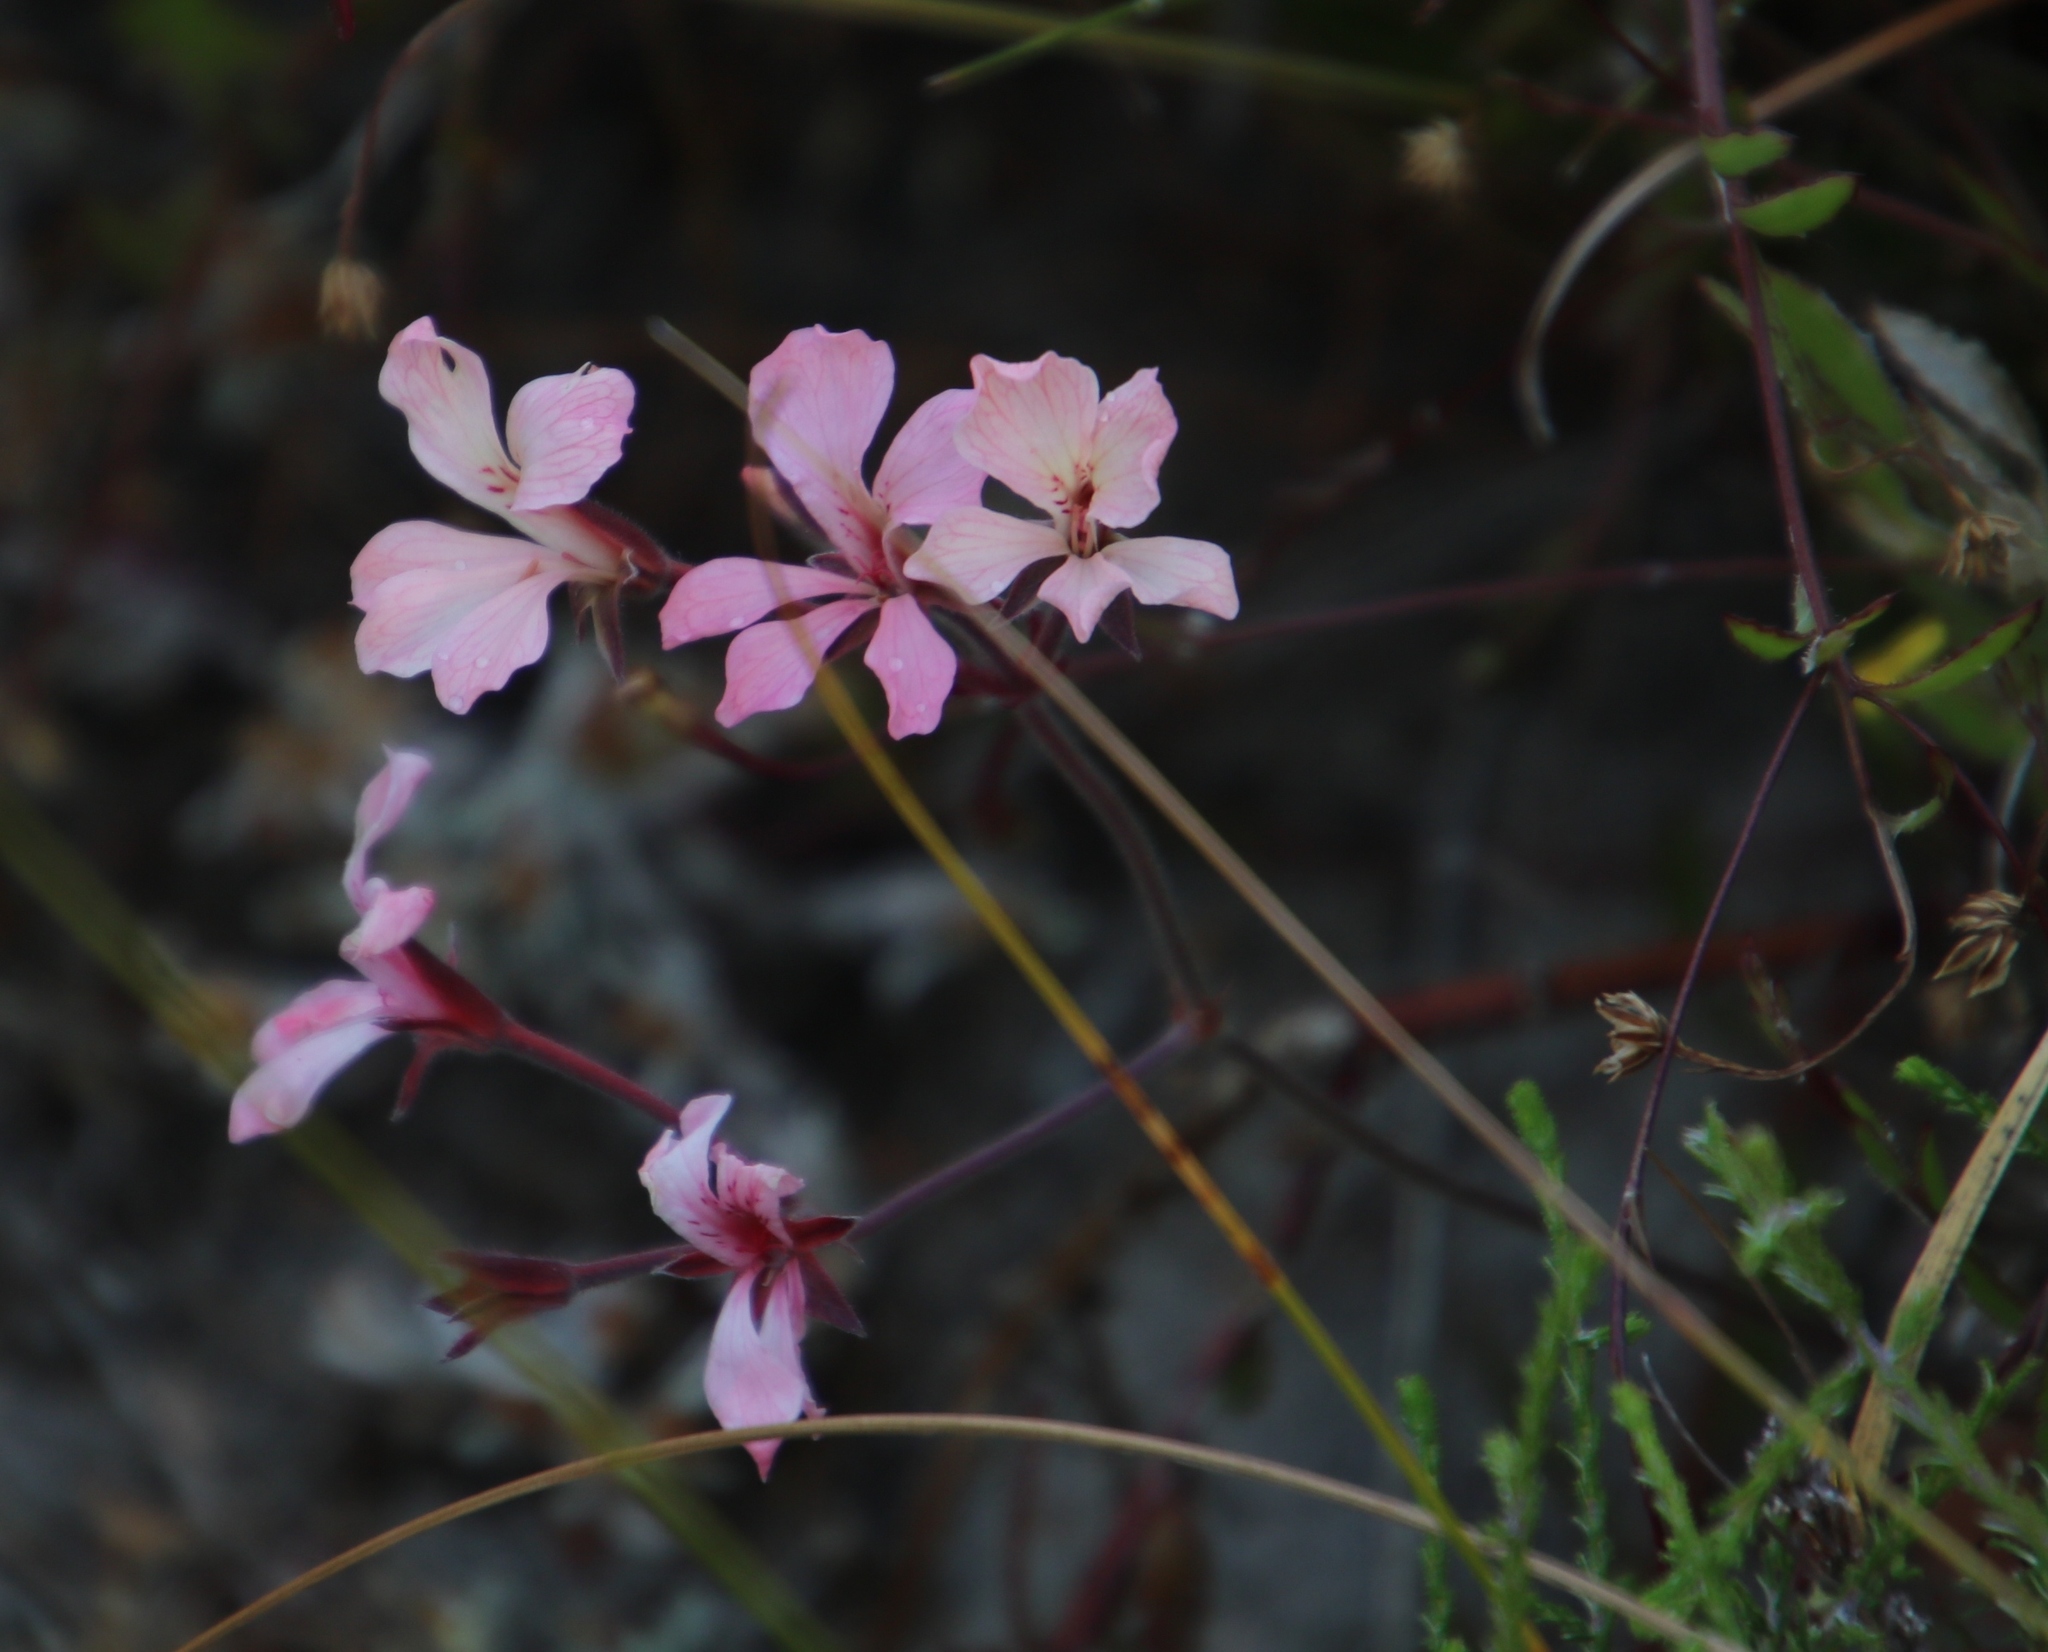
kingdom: Plantae
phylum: Tracheophyta
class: Magnoliopsida
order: Geraniales
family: Geraniaceae
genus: Pelargonium
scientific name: Pelargonium pinnatum
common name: Pinnated pelargonium
